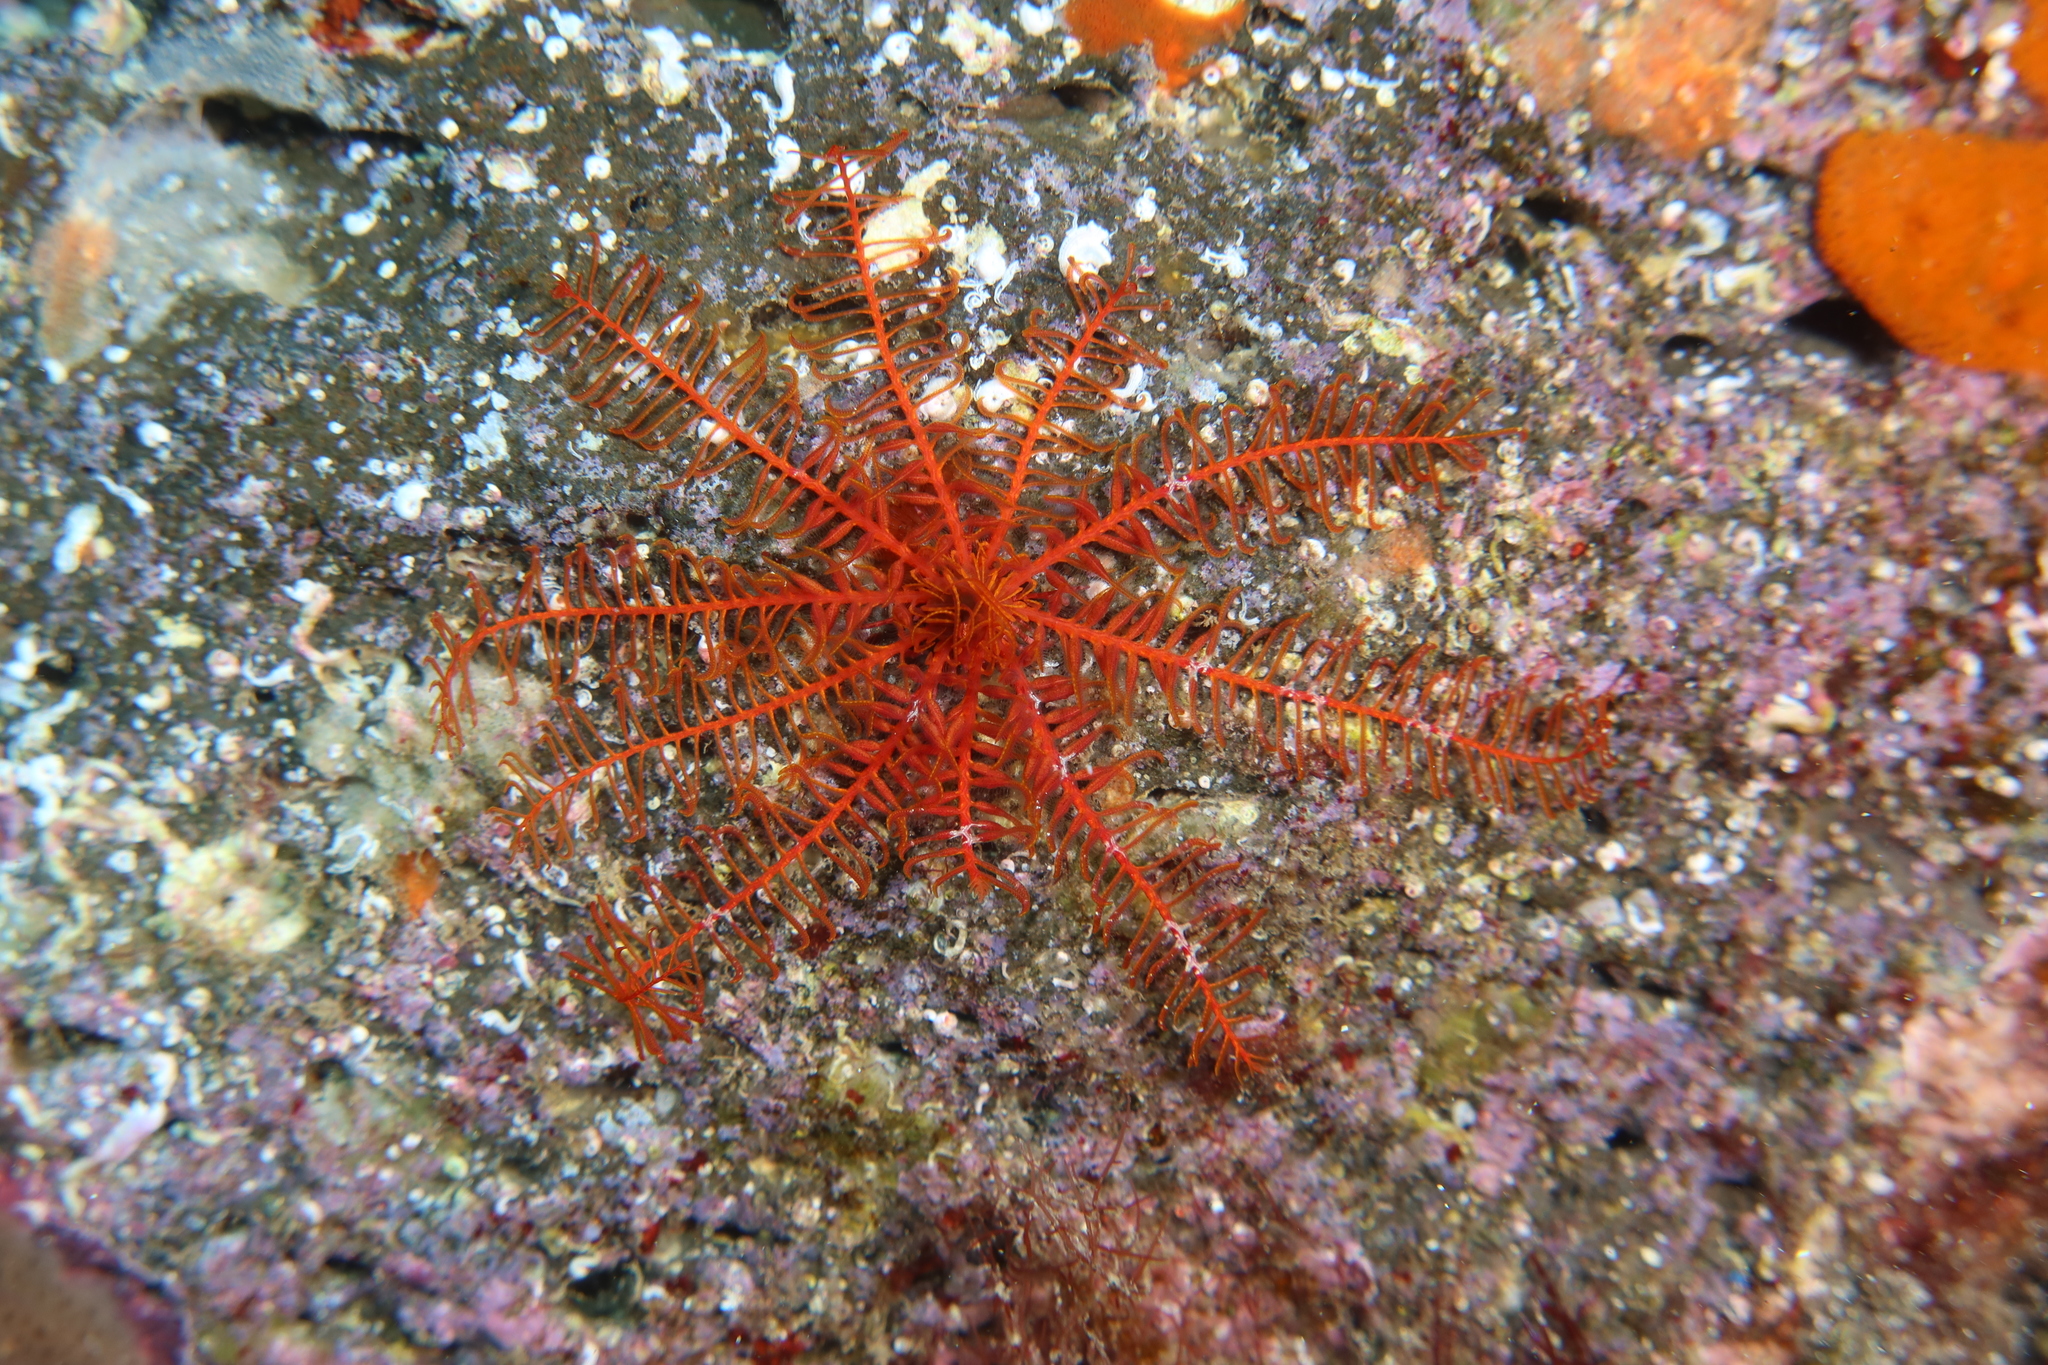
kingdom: Animalia
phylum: Echinodermata
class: Crinoidea
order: Comatulida
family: Antedonidae
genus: Antedon
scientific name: Antedon bifida
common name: Rosy feather-star
